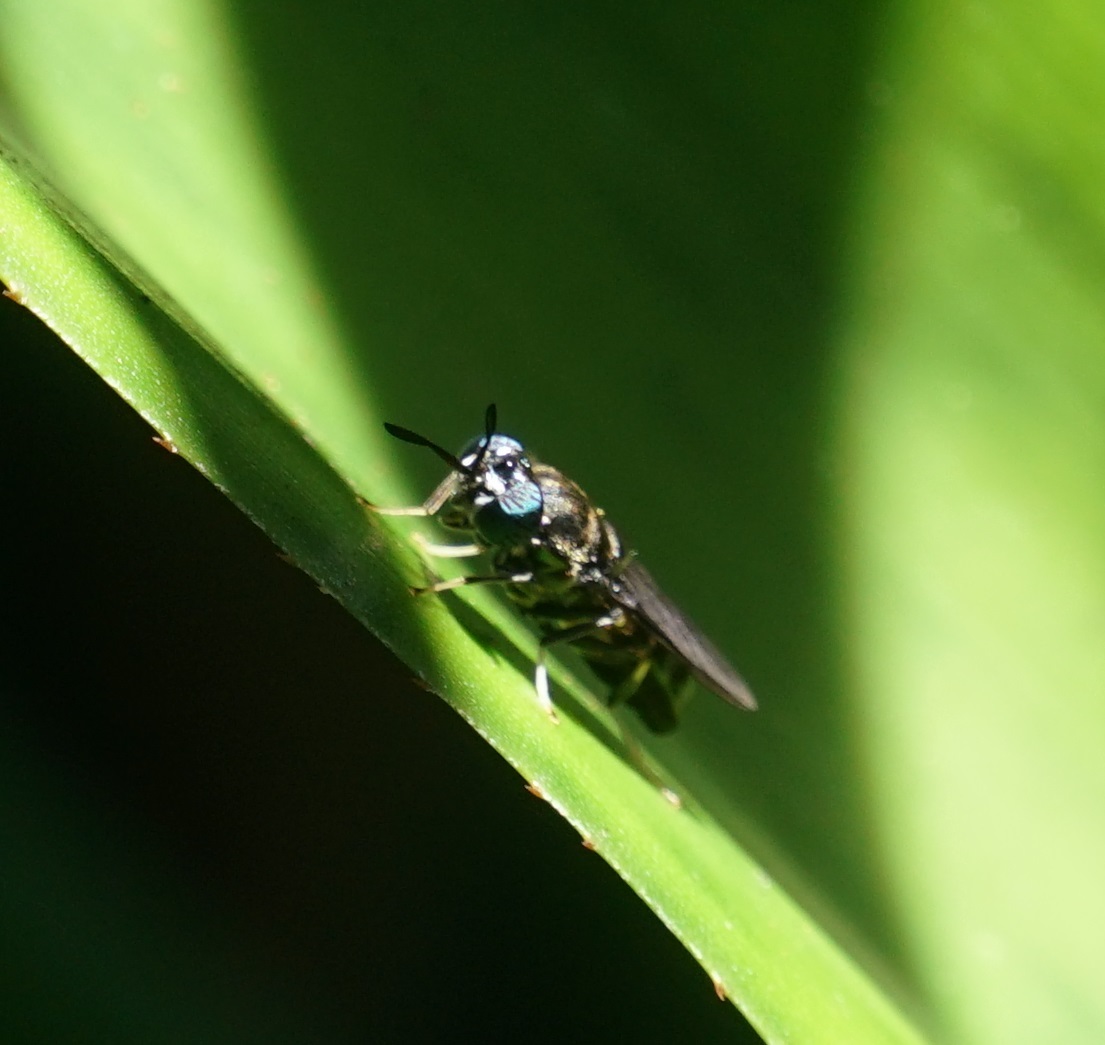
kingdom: Animalia
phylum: Arthropoda
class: Insecta
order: Diptera
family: Stratiomyidae
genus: Hermetia
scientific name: Hermetia illucens
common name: Black soldier fly
